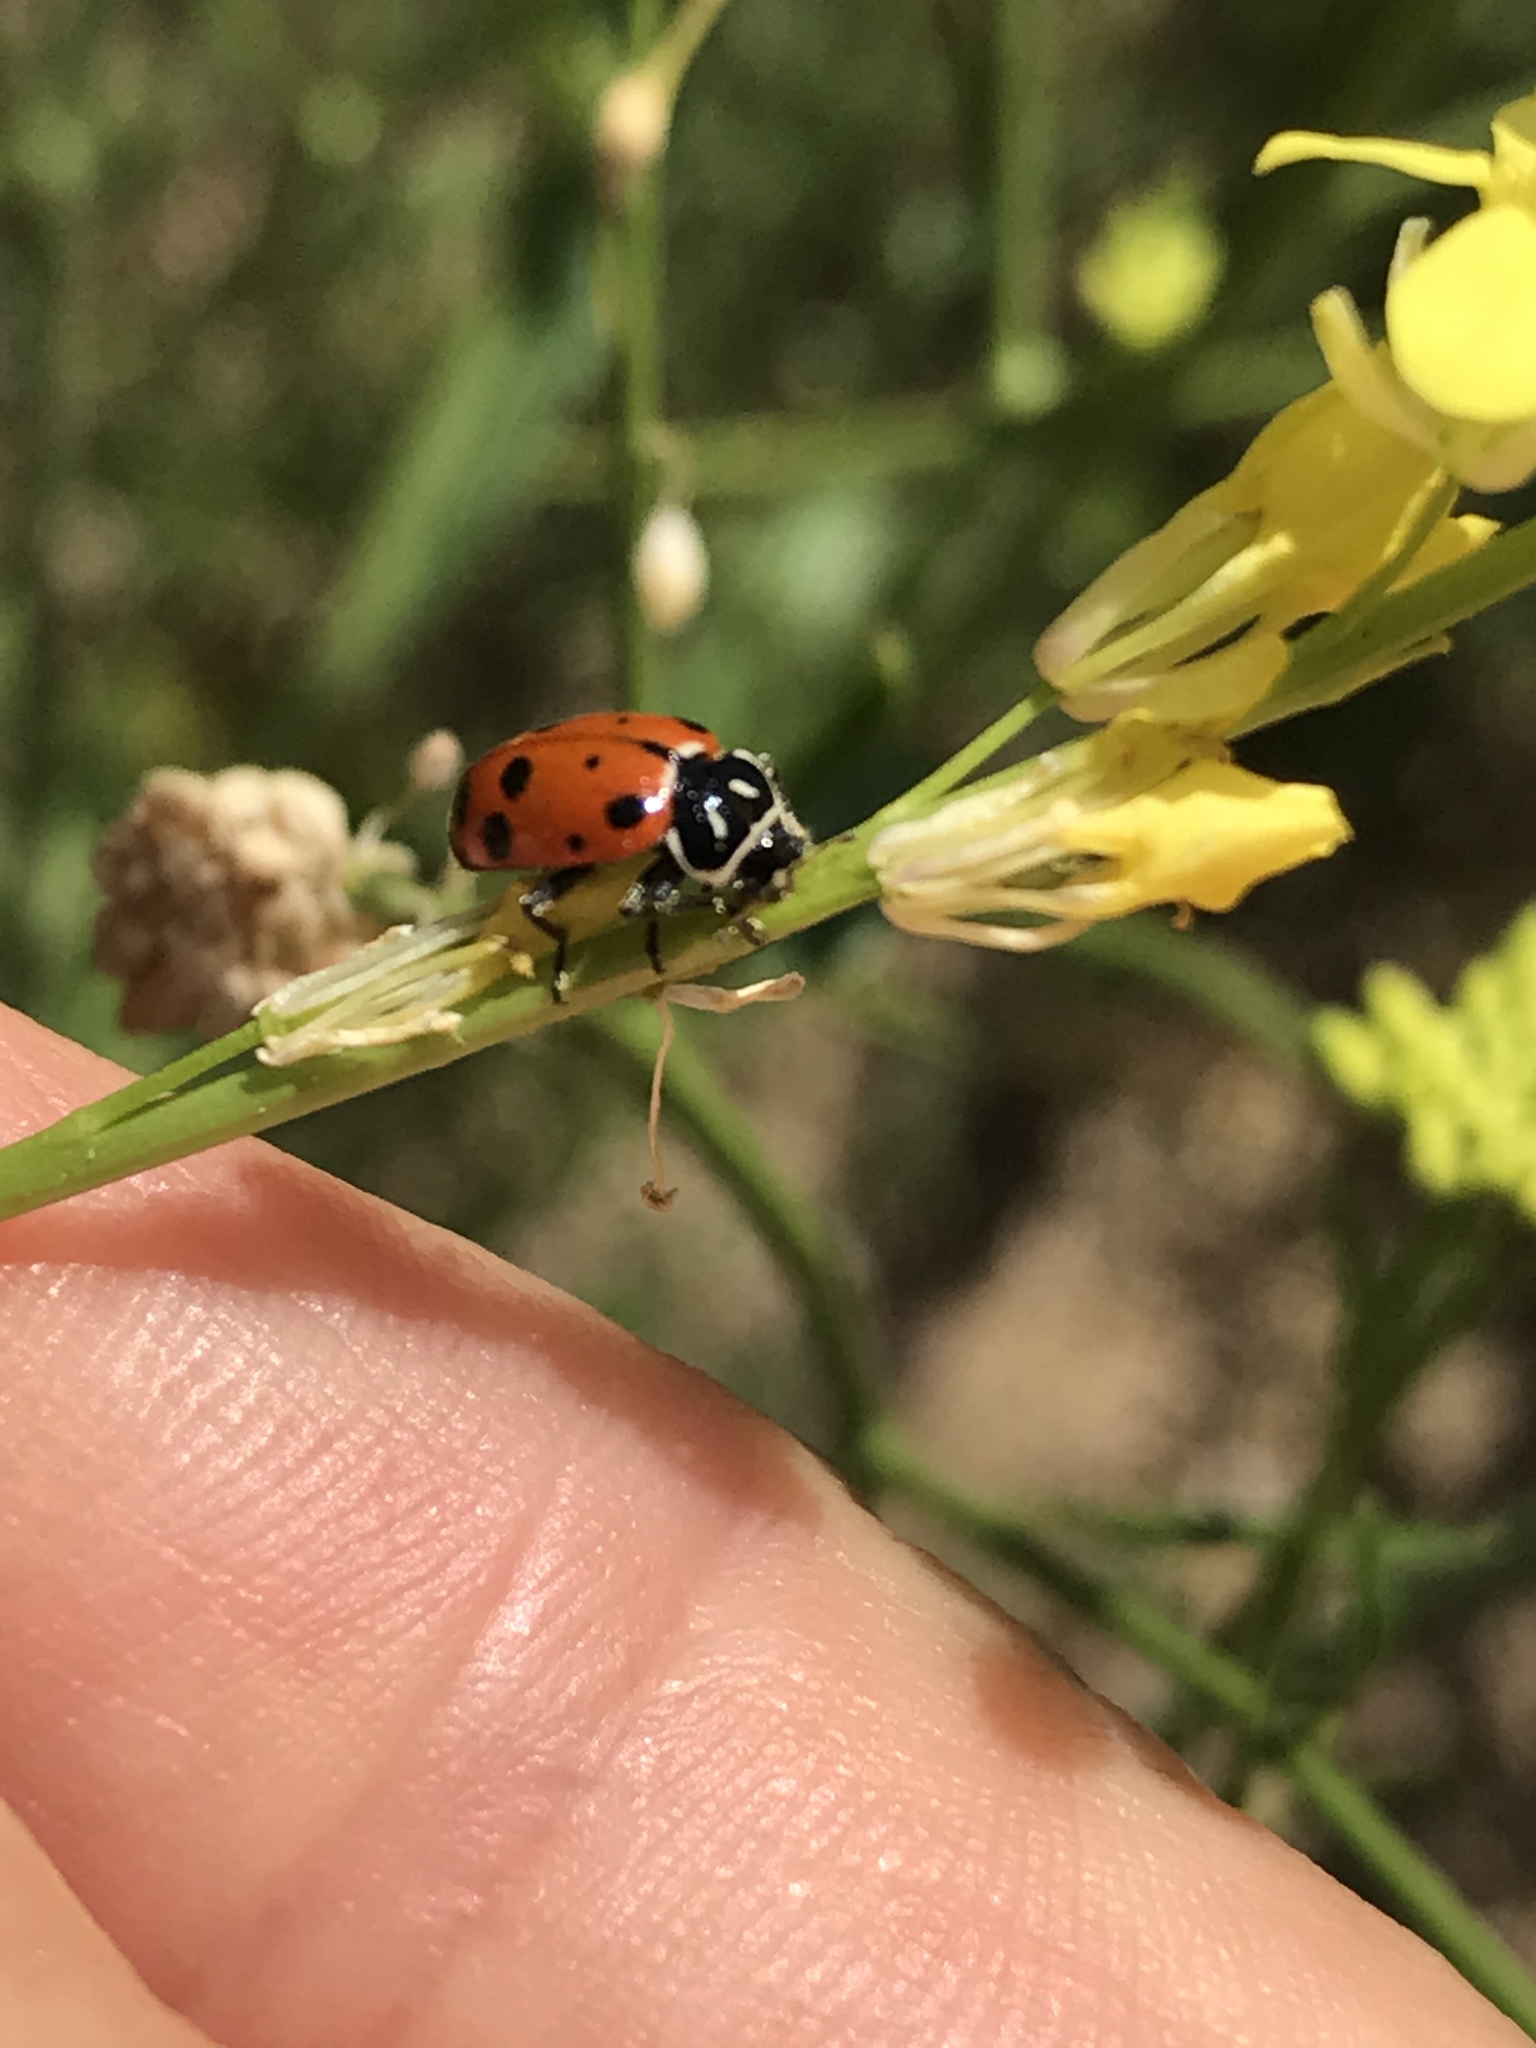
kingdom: Animalia
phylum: Arthropoda
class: Insecta
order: Coleoptera
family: Coccinellidae
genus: Hippodamia
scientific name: Hippodamia convergens
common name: Convergent lady beetle
